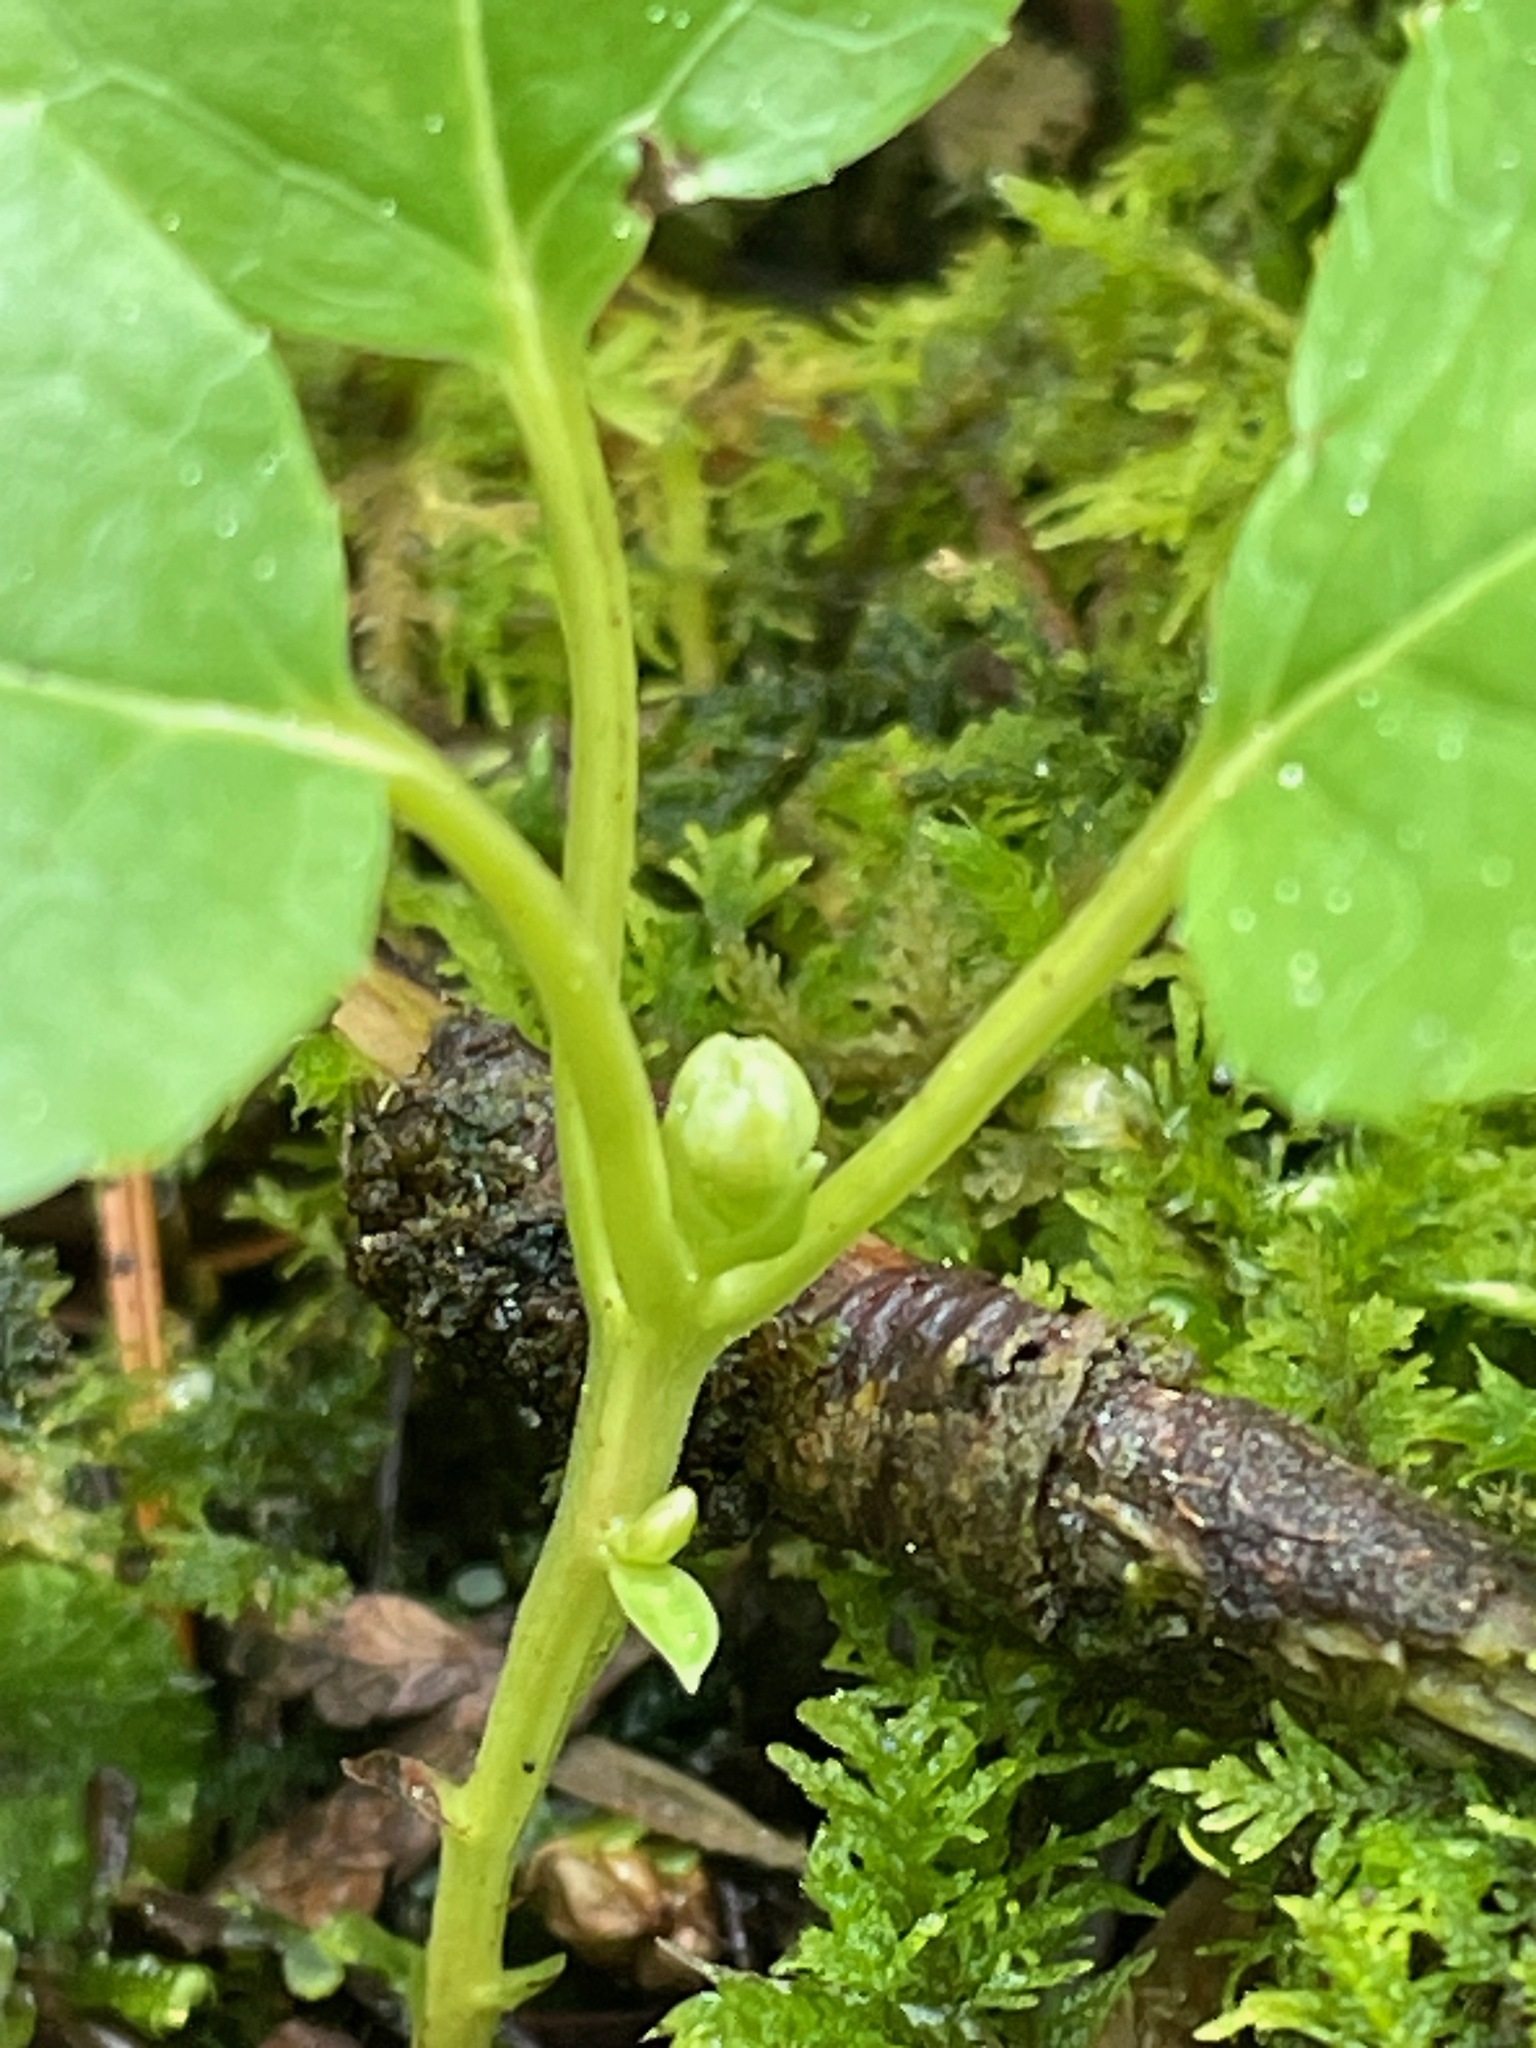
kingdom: Plantae
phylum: Tracheophyta
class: Magnoliopsida
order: Ericales
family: Ericaceae
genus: Orthilia
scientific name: Orthilia secunda
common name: One-sided orthilia
